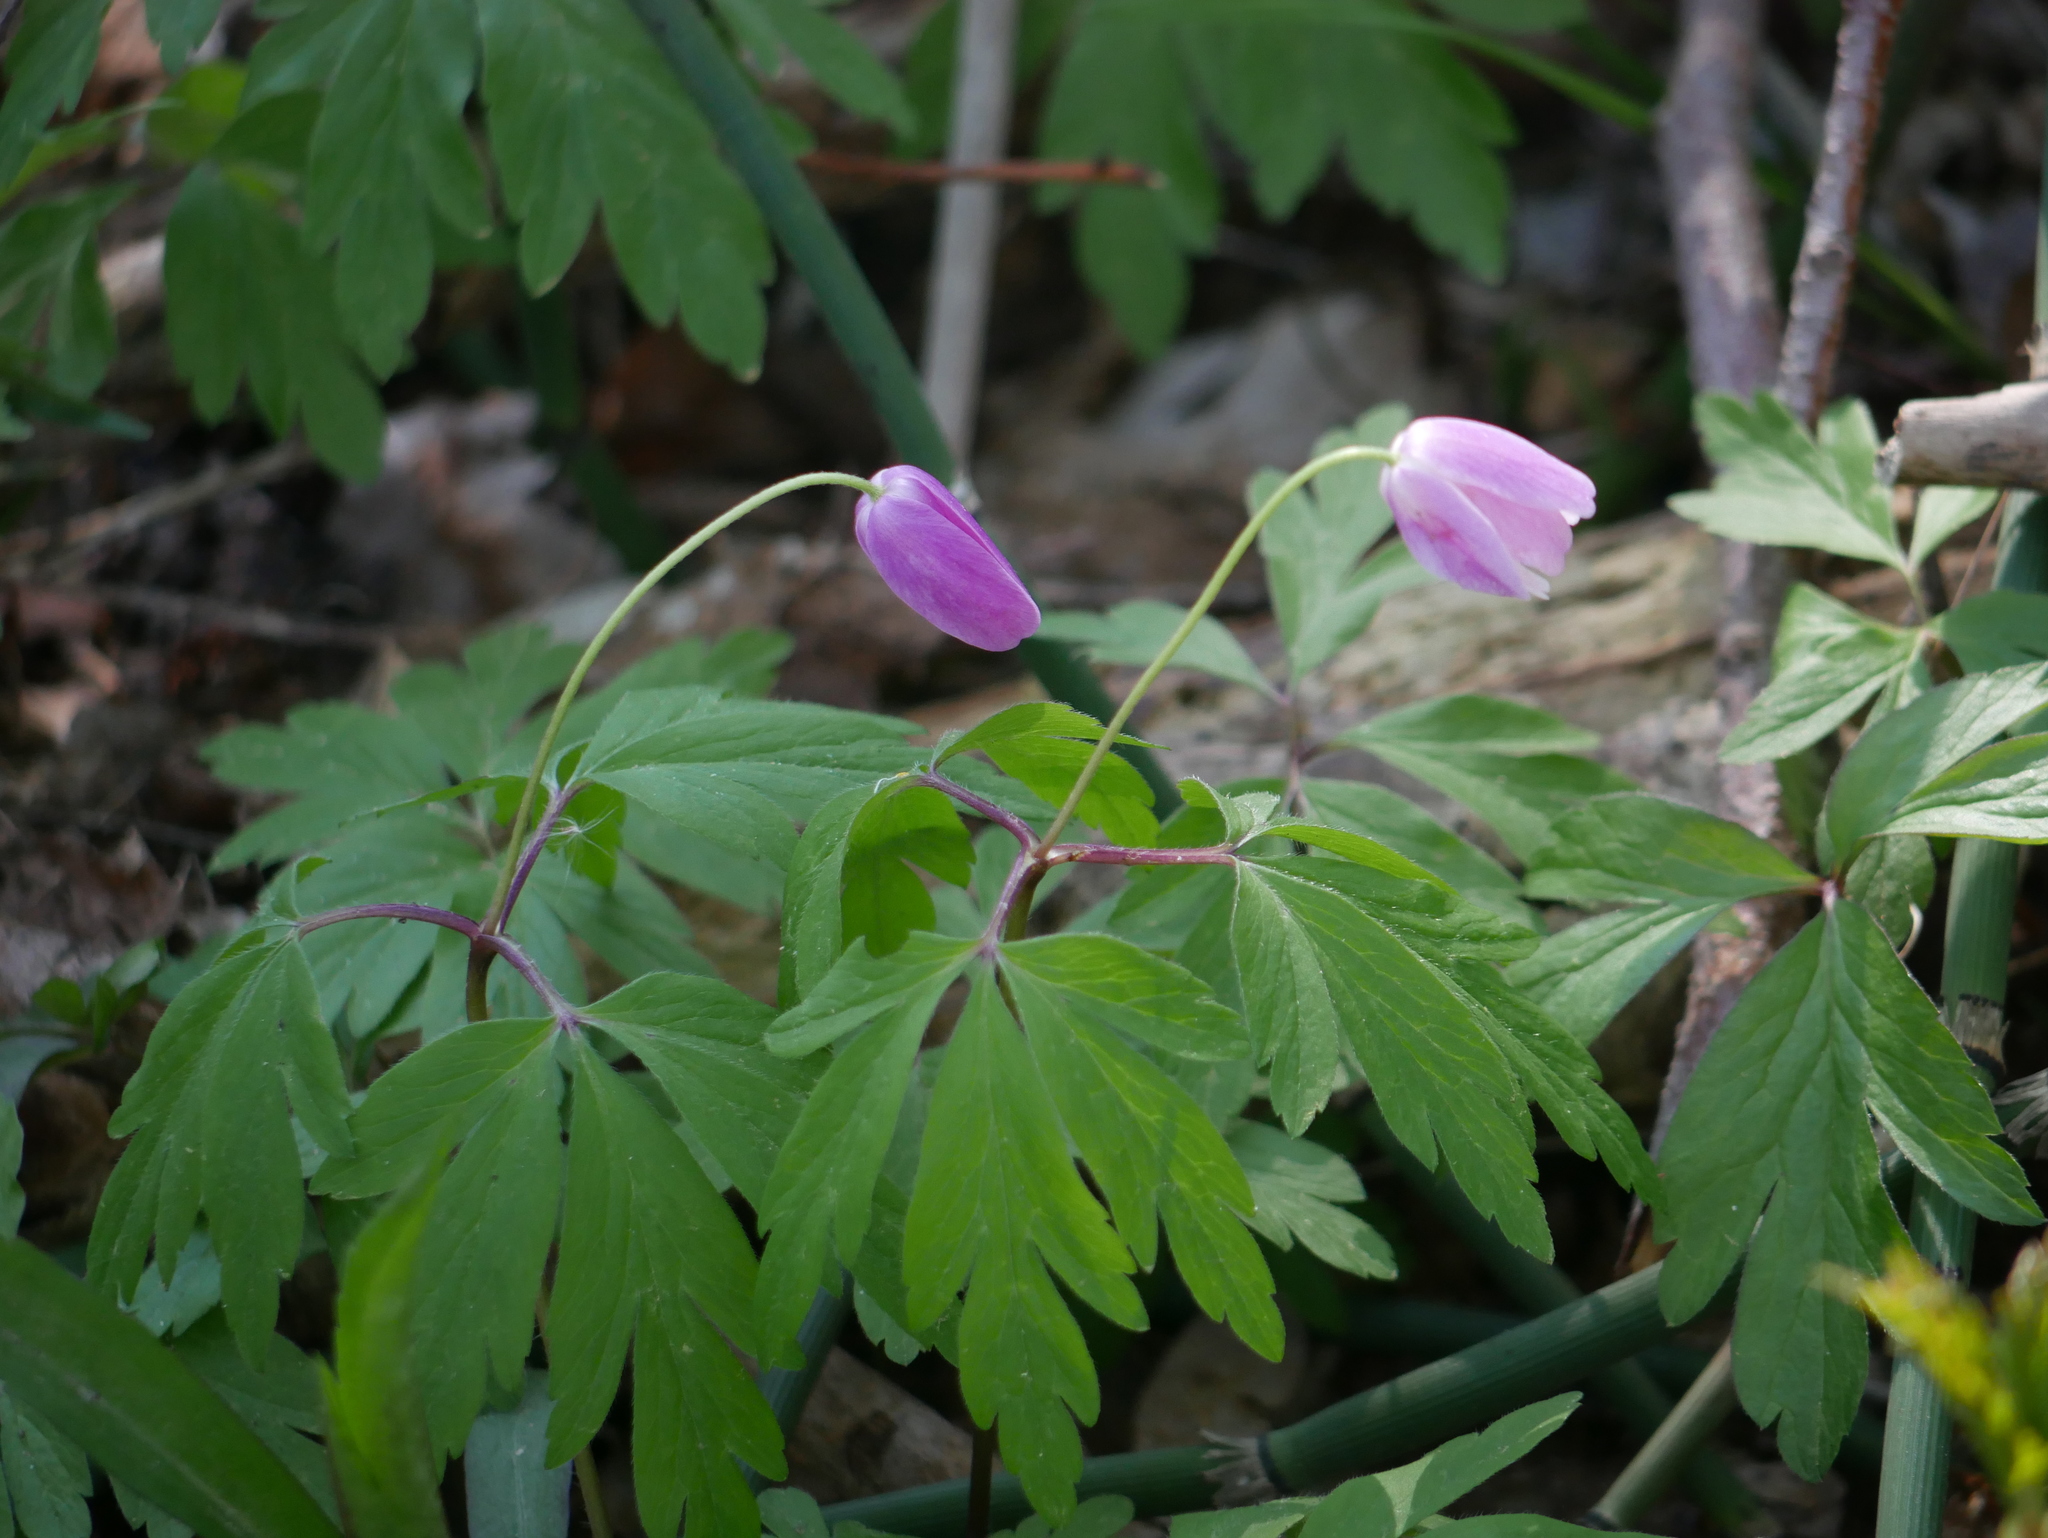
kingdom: Plantae
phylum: Tracheophyta
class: Magnoliopsida
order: Ranunculales
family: Ranunculaceae
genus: Anemone
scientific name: Anemone nemorosa
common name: Wood anemone
